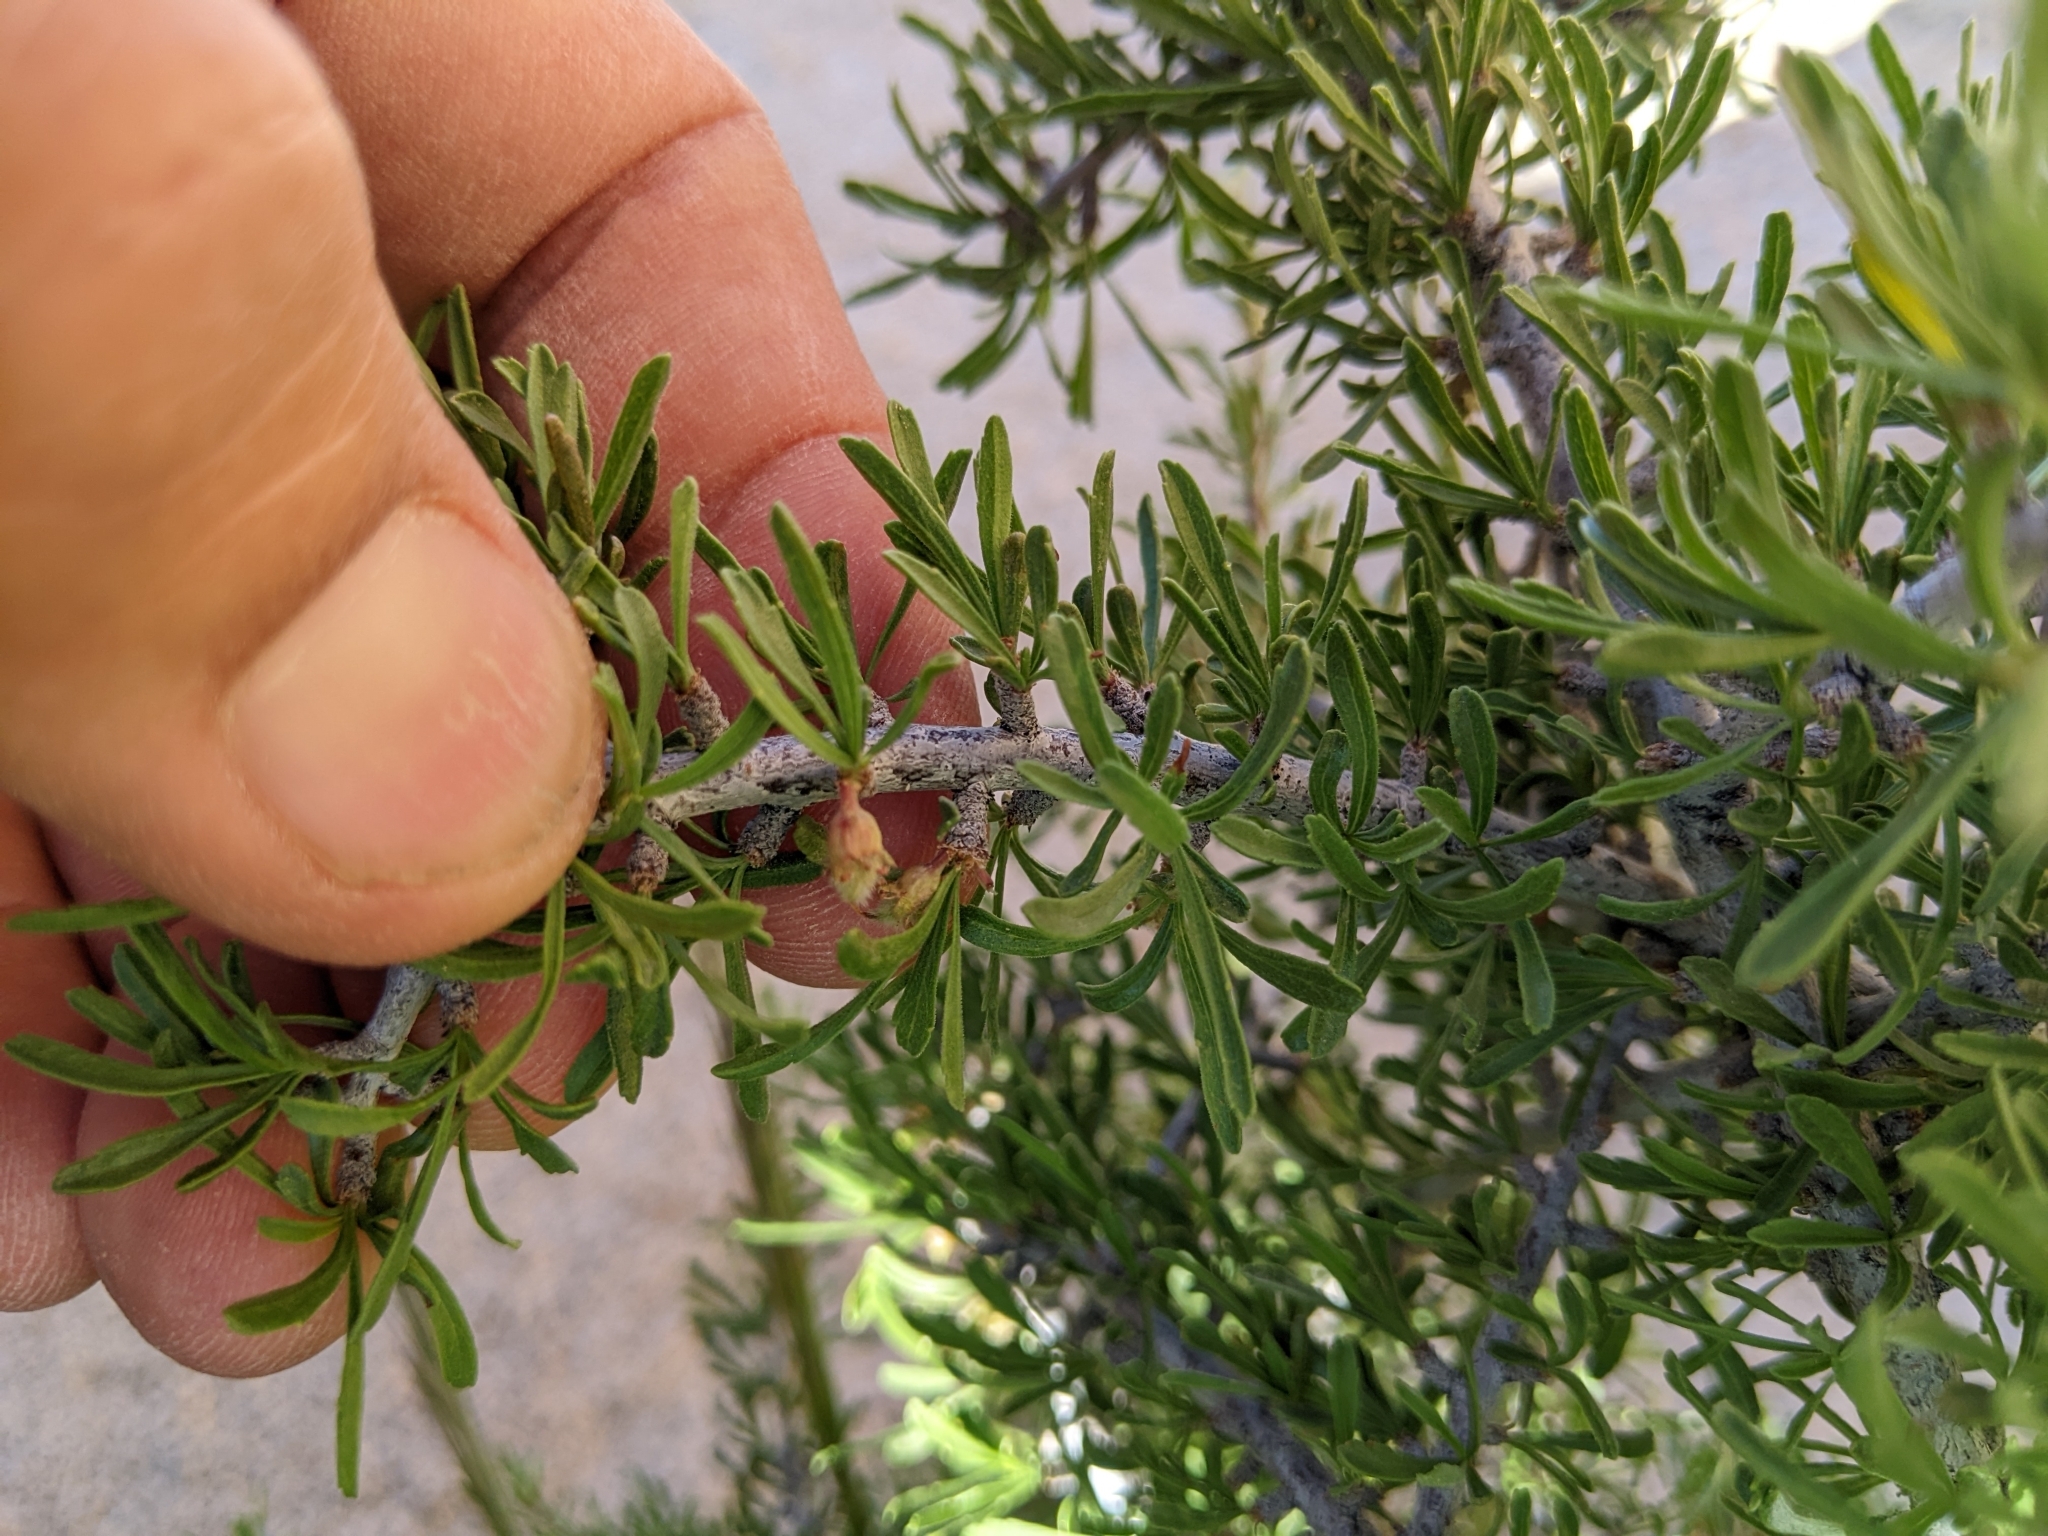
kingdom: Plantae
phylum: Tracheophyta
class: Magnoliopsida
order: Rosales
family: Rosaceae
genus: Prunus
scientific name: Prunus fasciculata
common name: Desert almond
